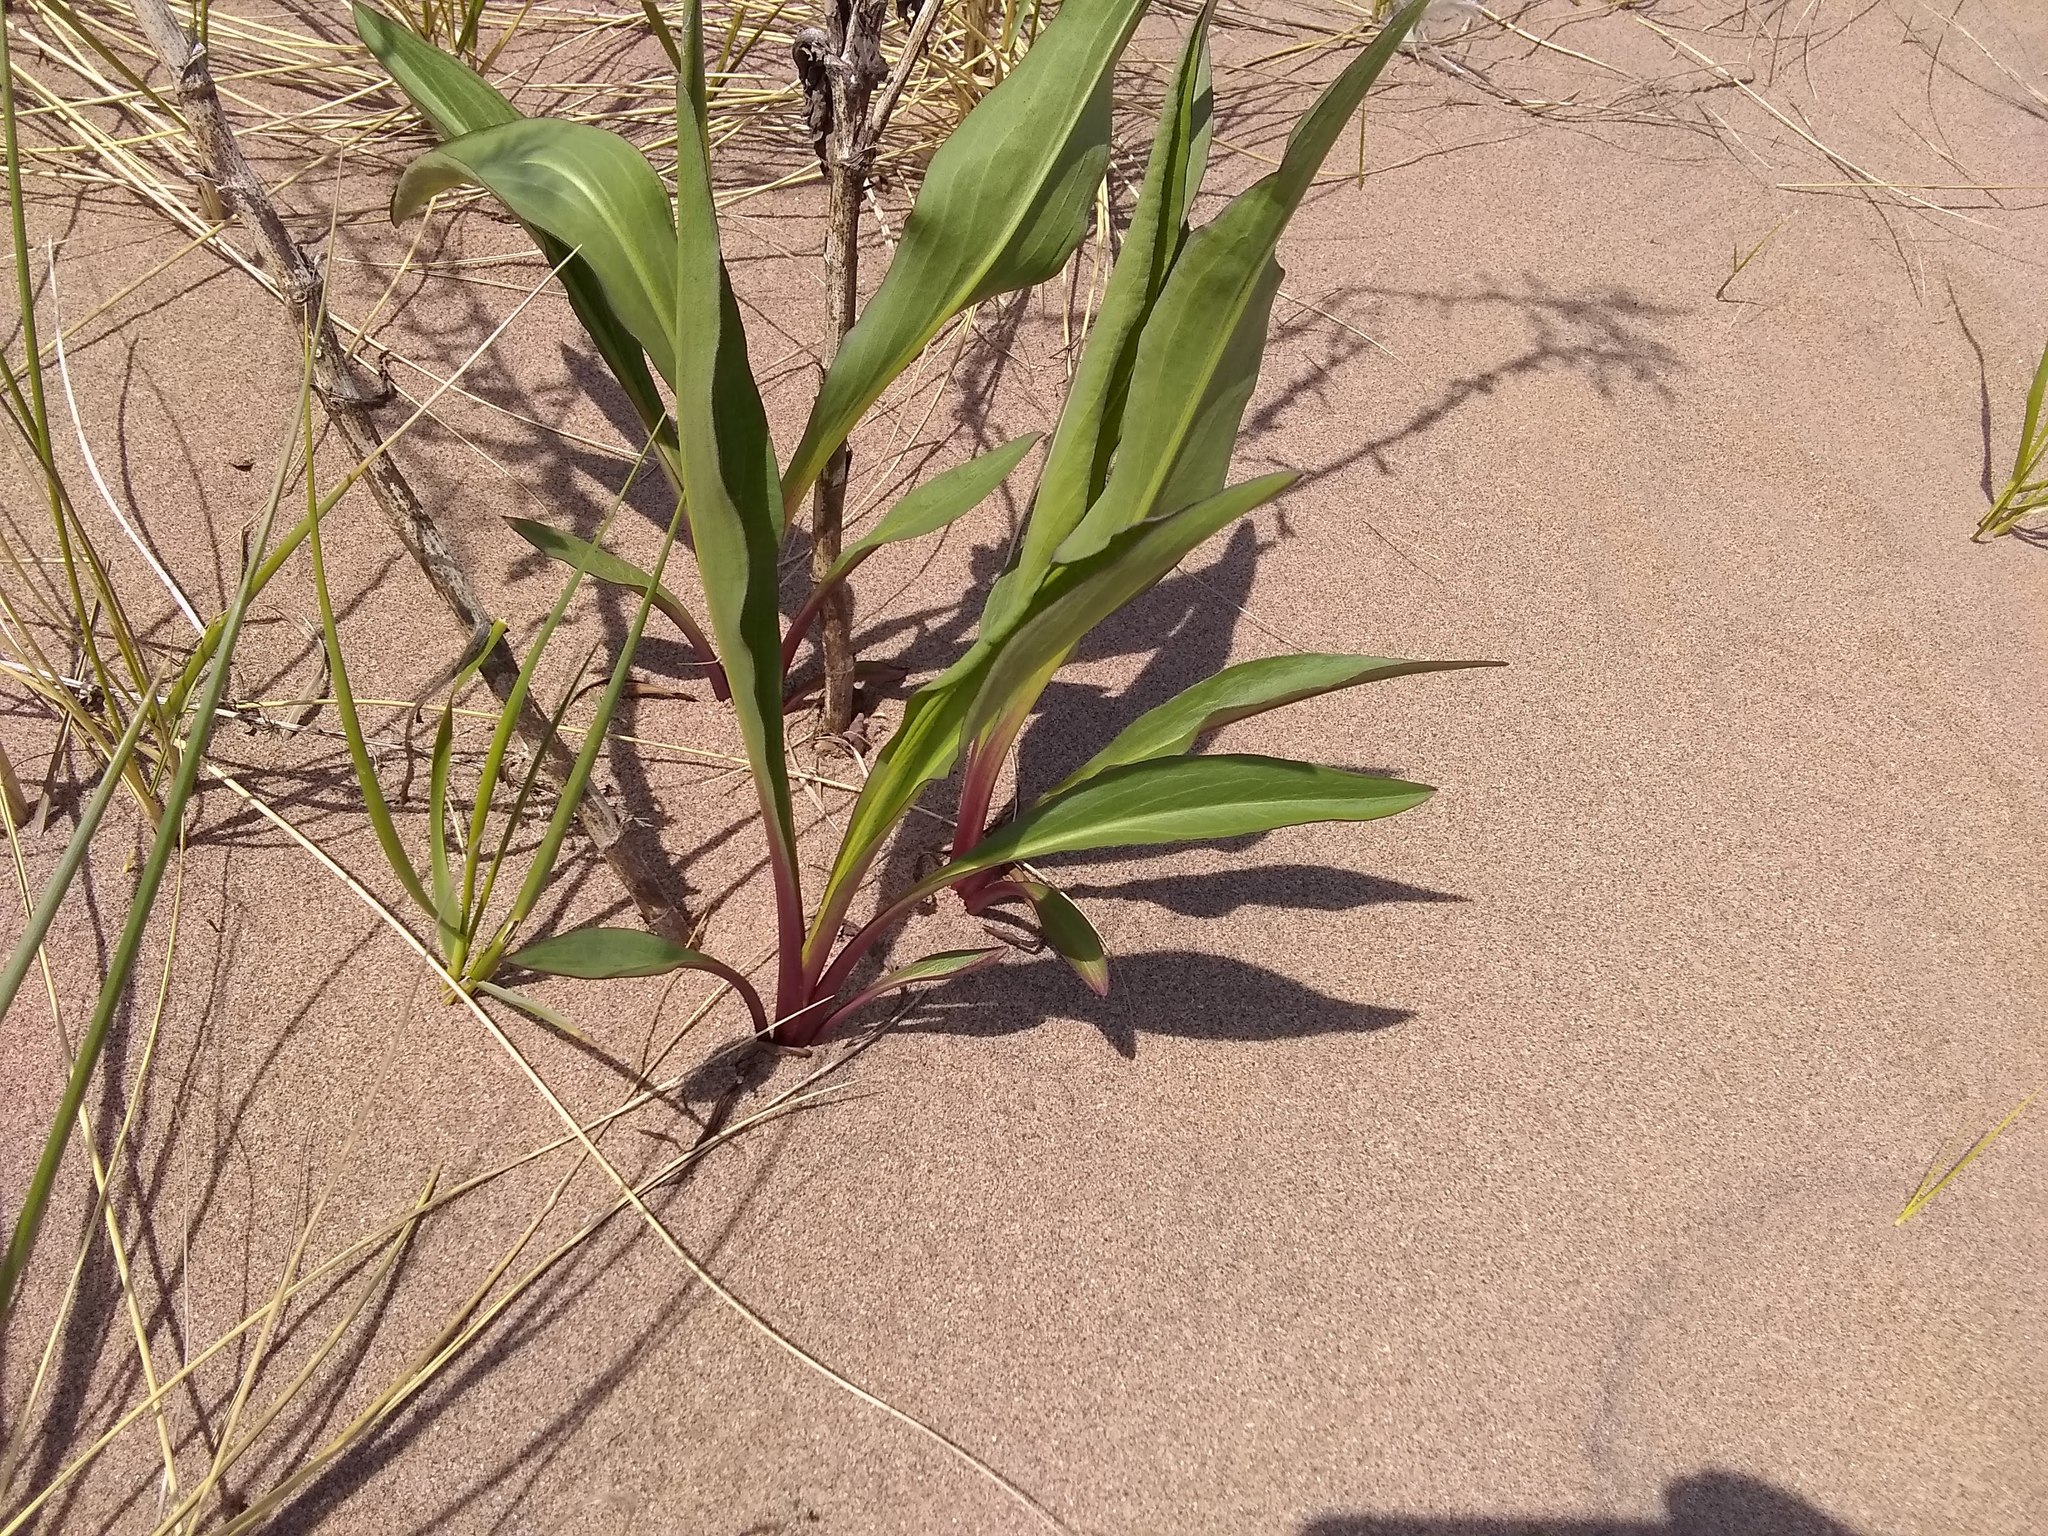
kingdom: Plantae
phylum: Tracheophyta
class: Magnoliopsida
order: Asterales
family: Asteraceae
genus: Solidago
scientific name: Solidago sempervirens
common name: Salt-marsh goldenrod
